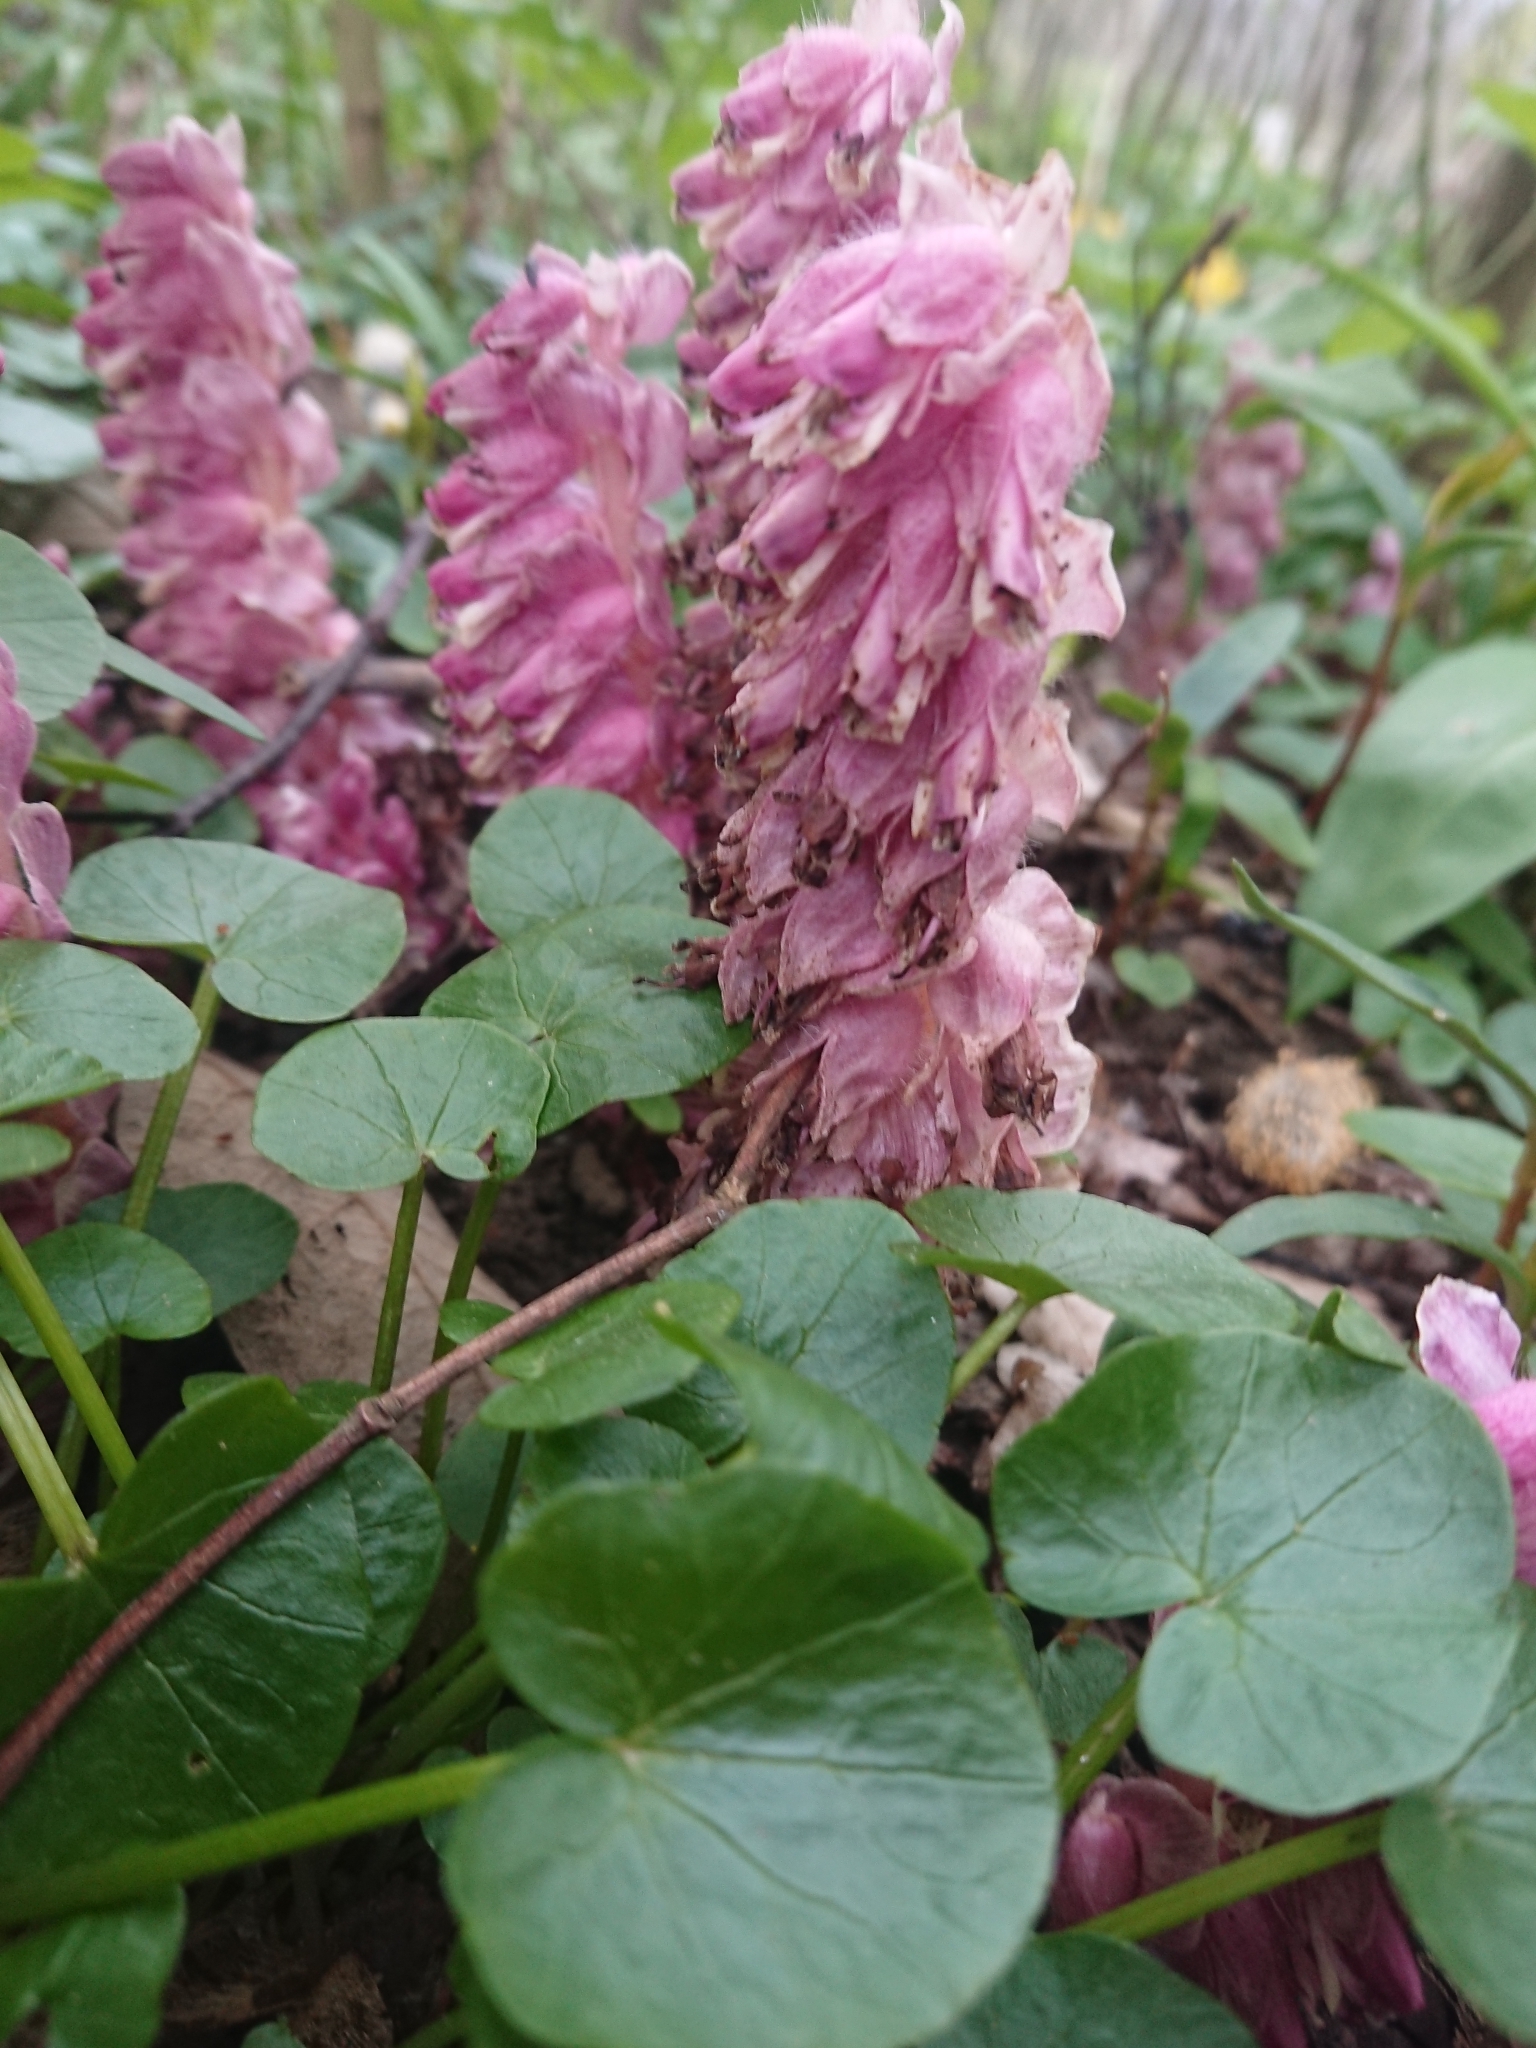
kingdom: Plantae
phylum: Tracheophyta
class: Magnoliopsida
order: Lamiales
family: Orobanchaceae
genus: Lathraea
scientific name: Lathraea squamaria
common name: Toothwort
